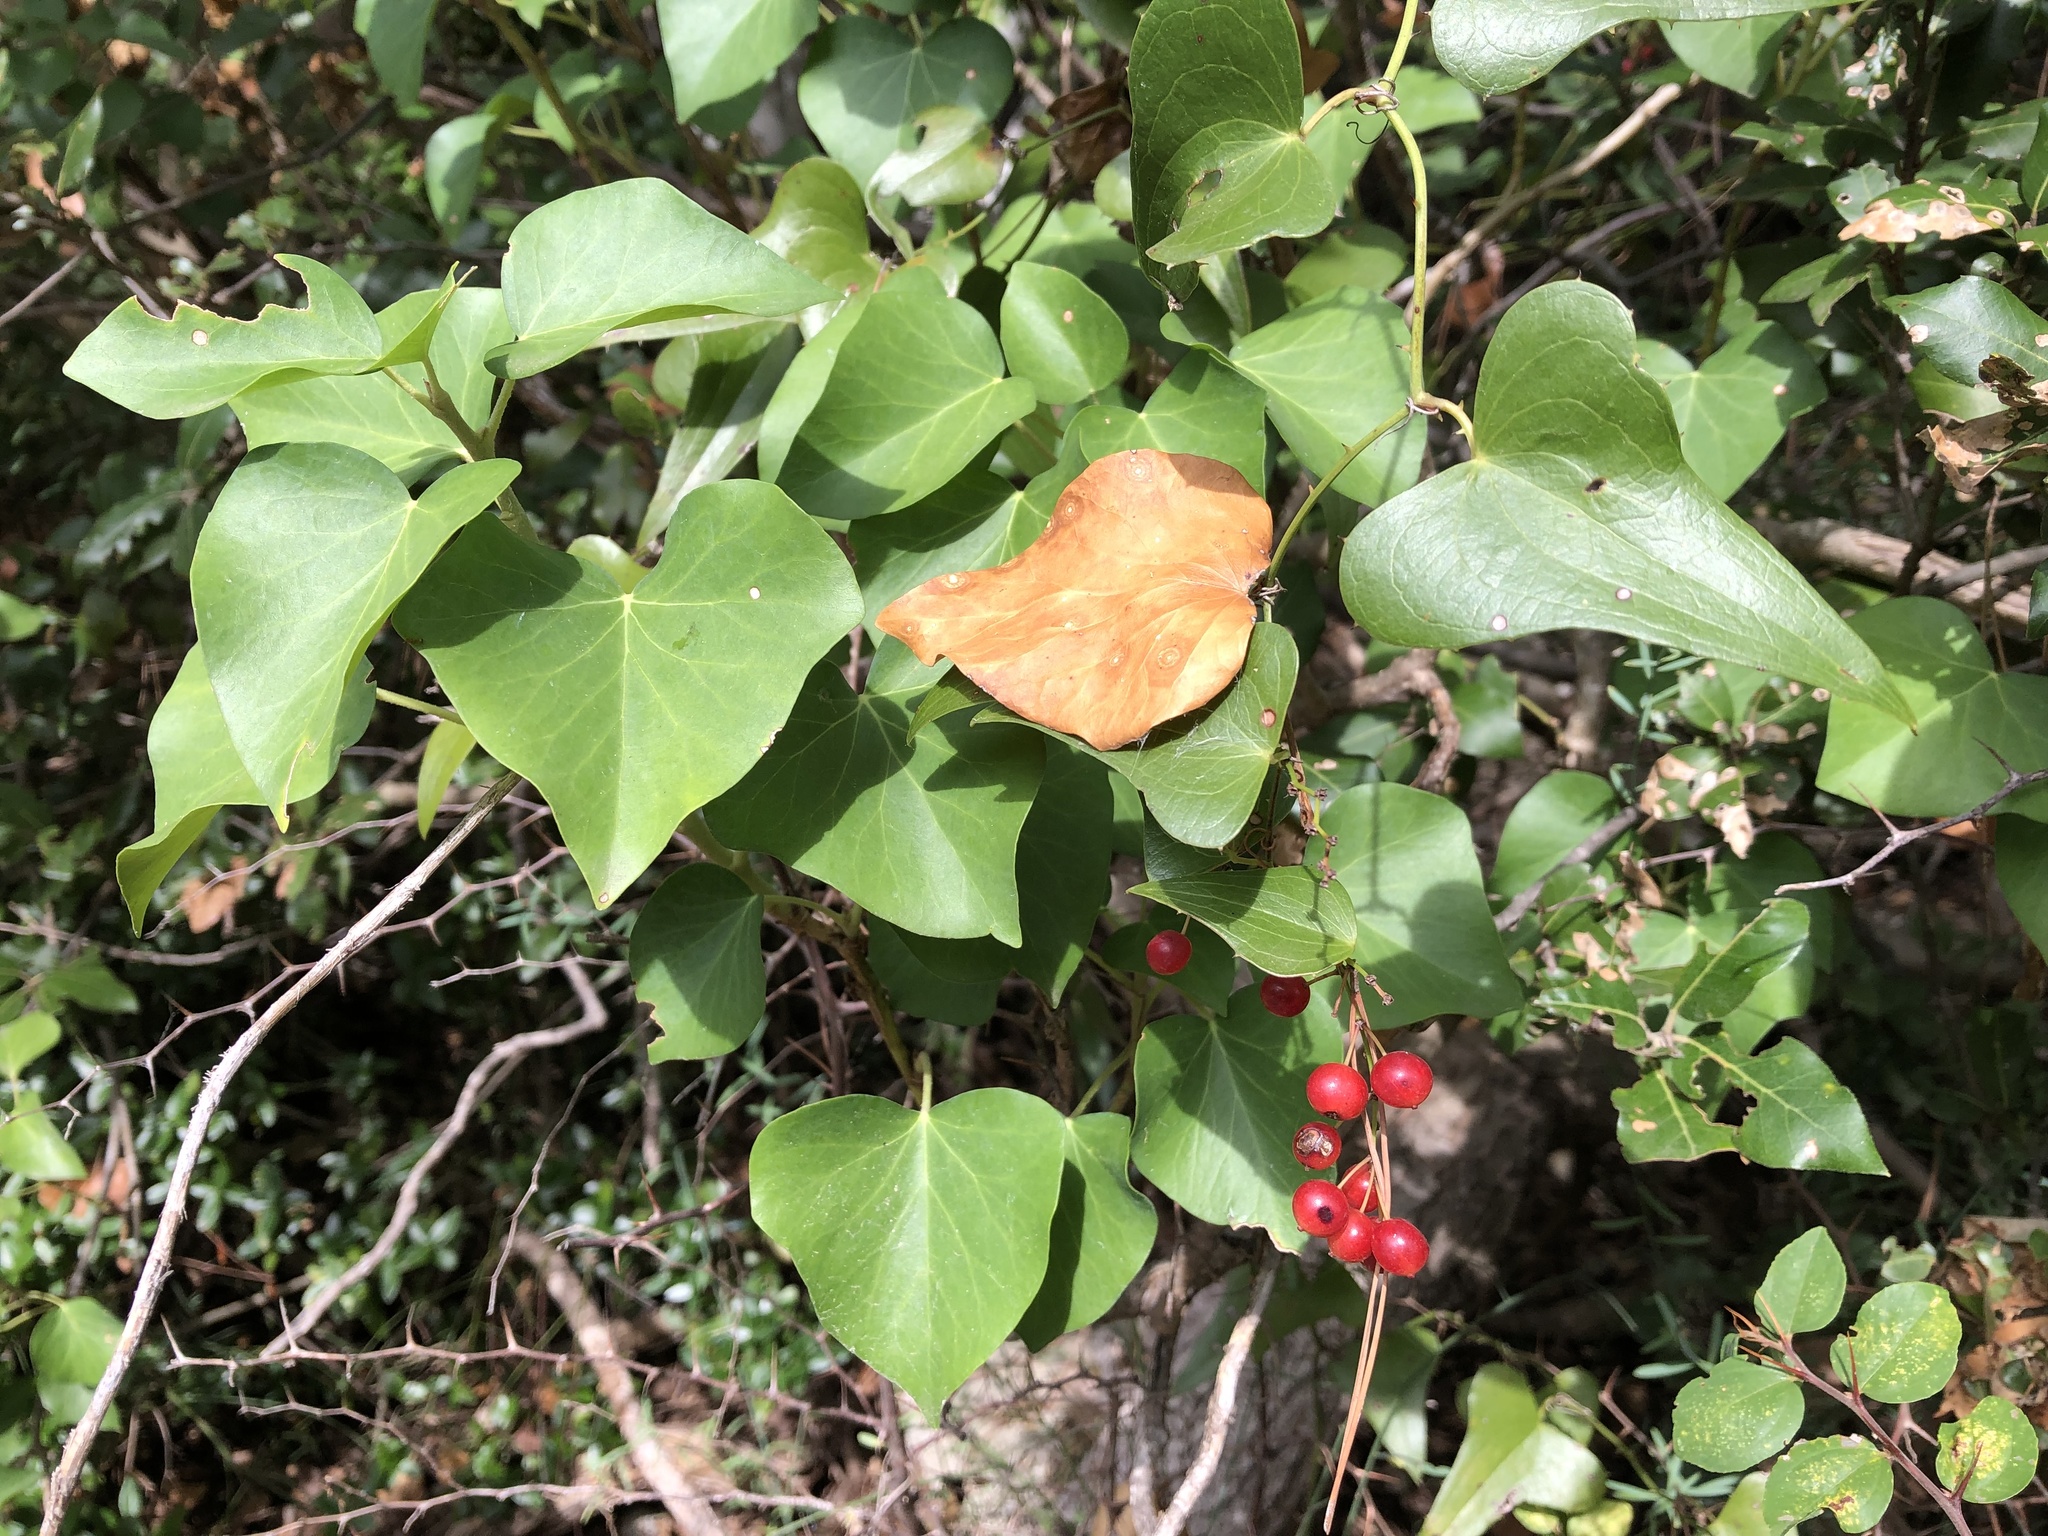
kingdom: Plantae
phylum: Tracheophyta
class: Liliopsida
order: Liliales
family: Smilacaceae
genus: Smilax
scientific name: Smilax aspera
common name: Common smilax
